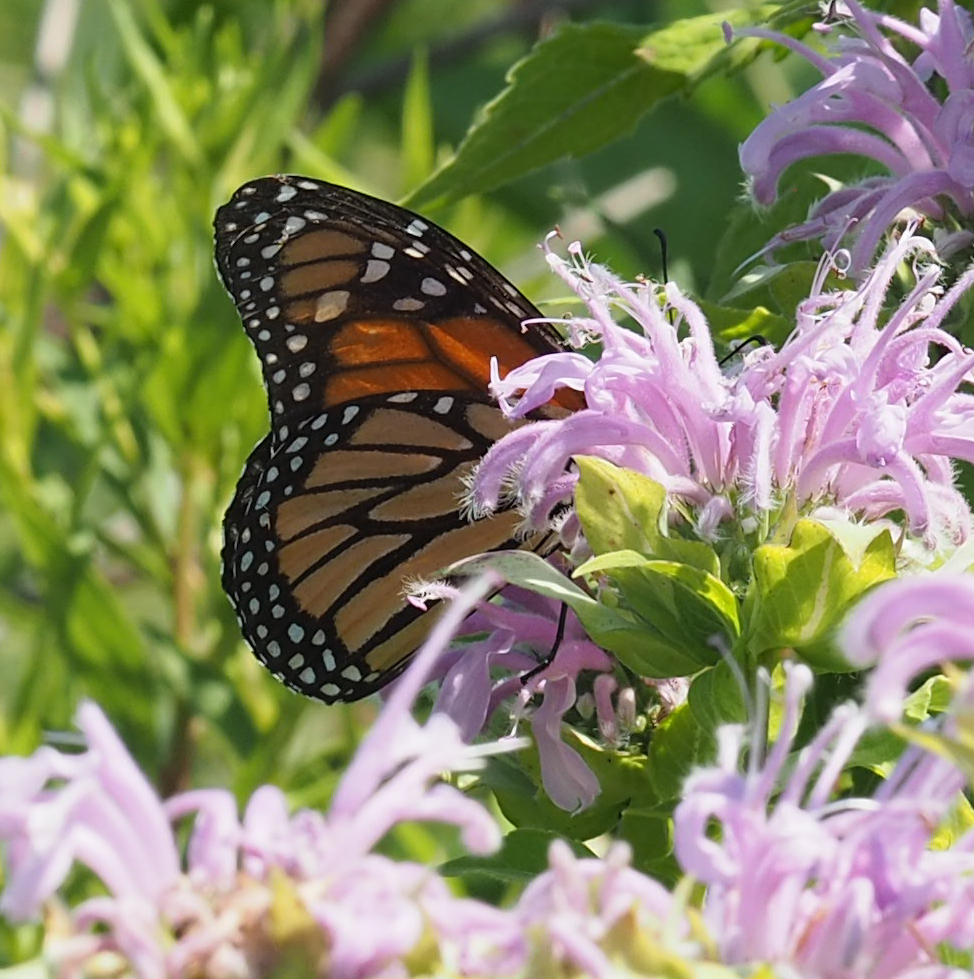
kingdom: Animalia
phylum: Arthropoda
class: Insecta
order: Lepidoptera
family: Nymphalidae
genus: Danaus
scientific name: Danaus plexippus
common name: Monarch
